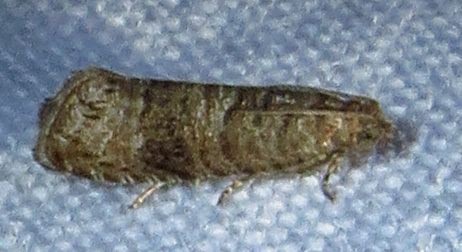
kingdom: Animalia
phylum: Arthropoda
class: Insecta
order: Lepidoptera
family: Noctuidae
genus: Aspila
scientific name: Aspila
